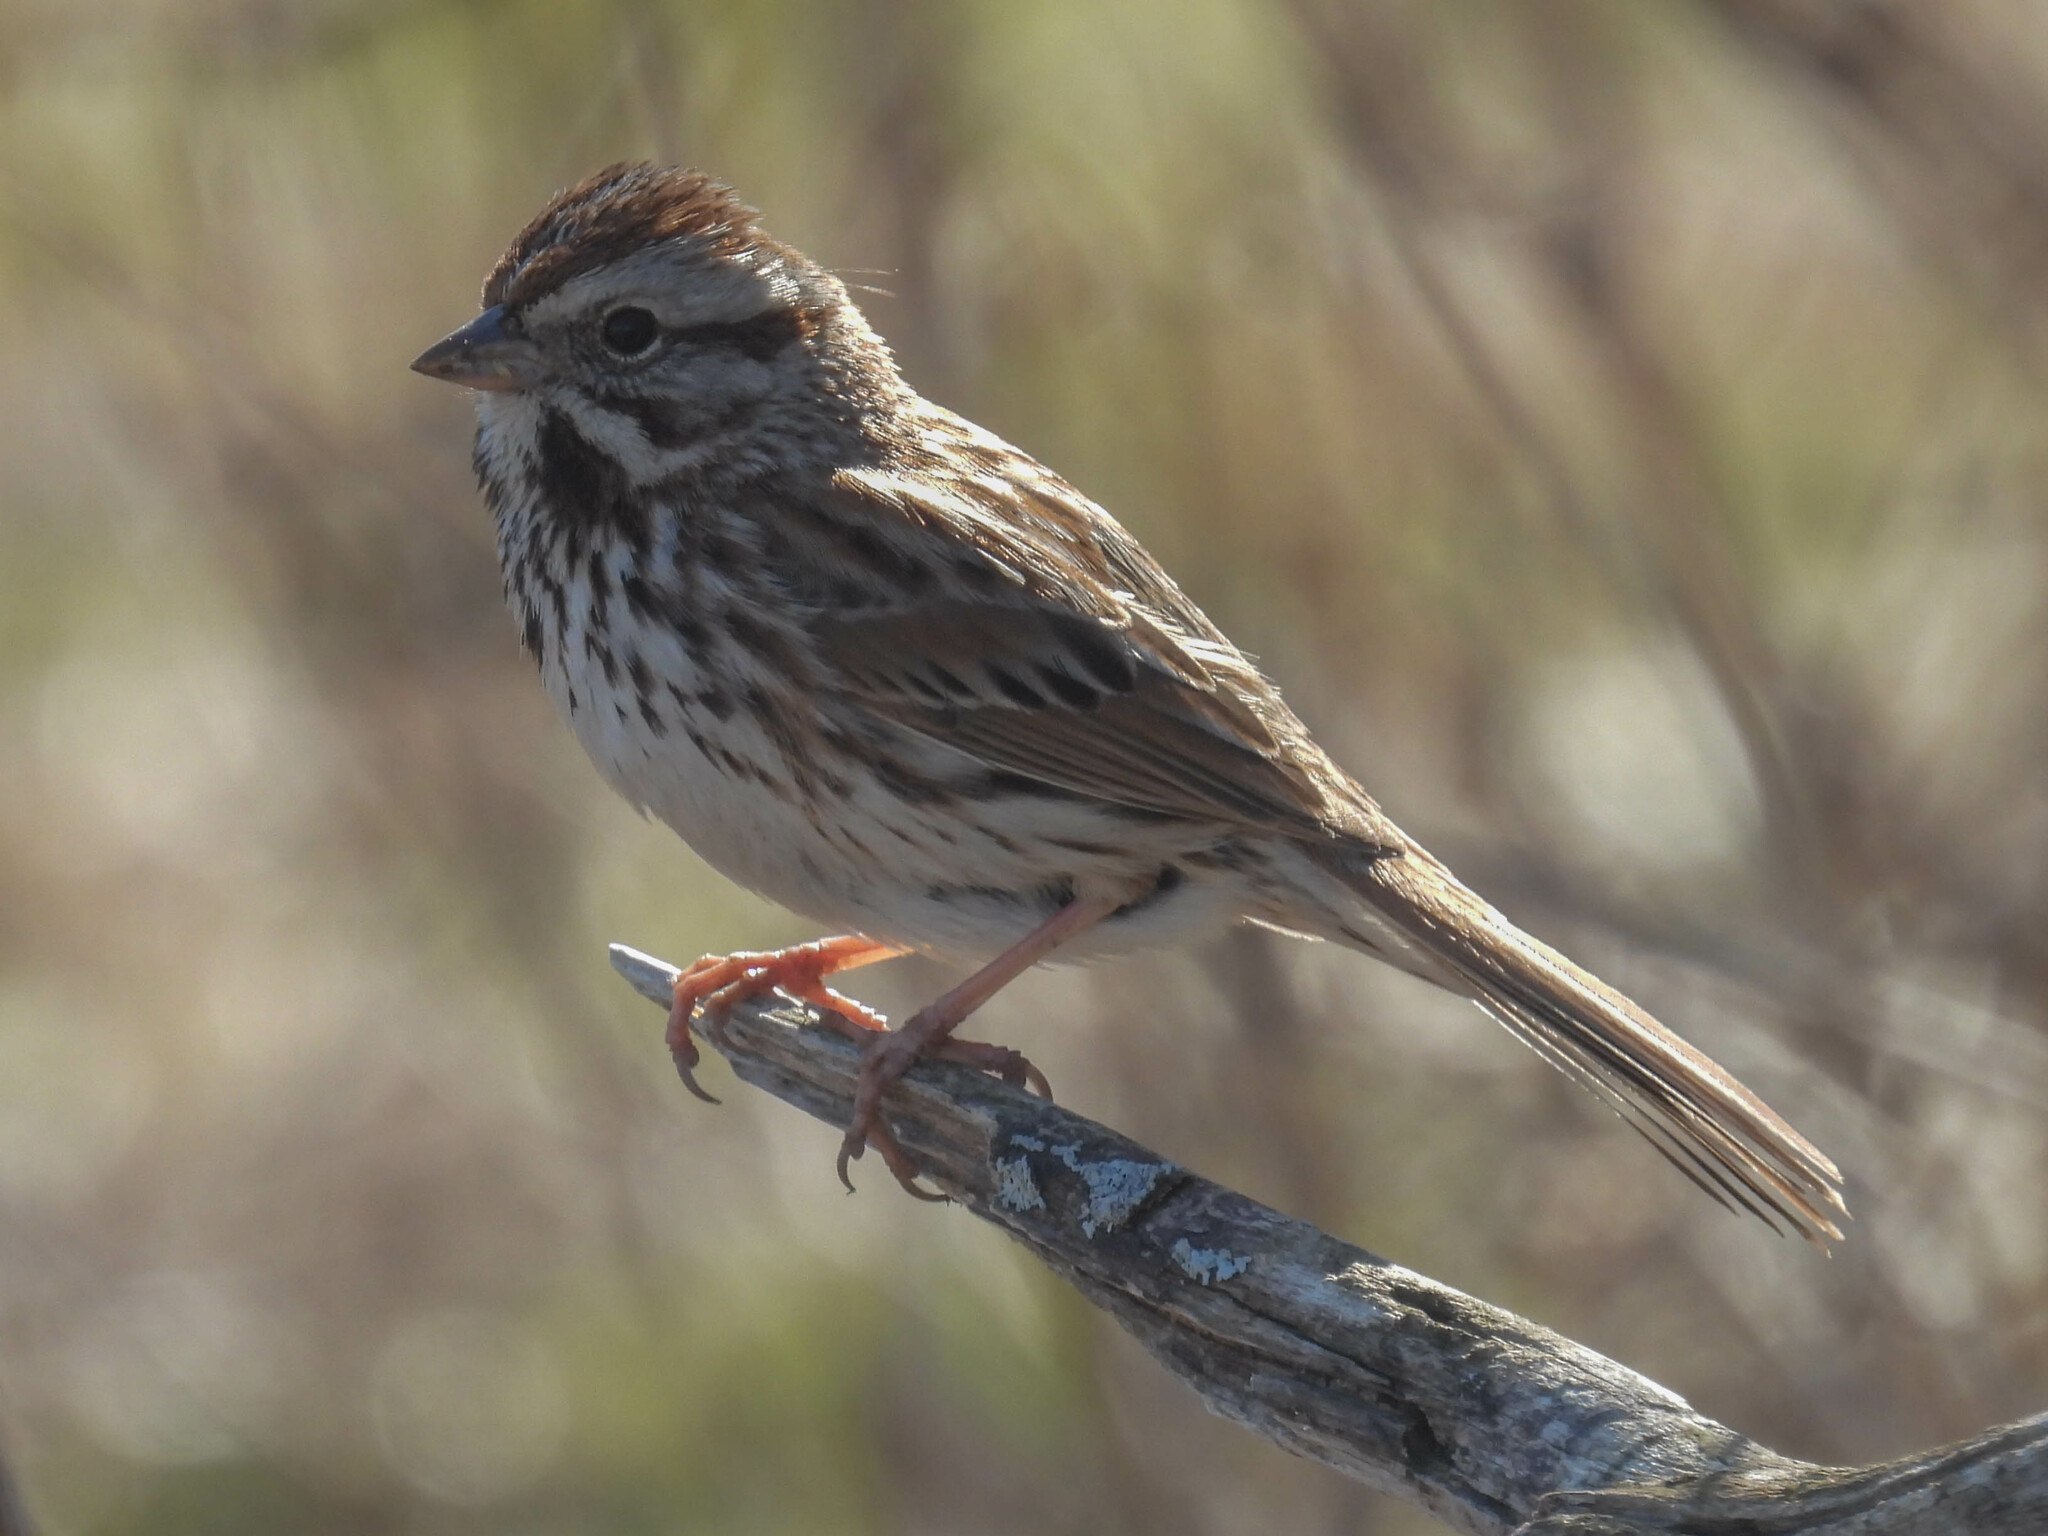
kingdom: Animalia
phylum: Chordata
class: Aves
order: Passeriformes
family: Passerellidae
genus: Melospiza
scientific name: Melospiza melodia
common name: Song sparrow
